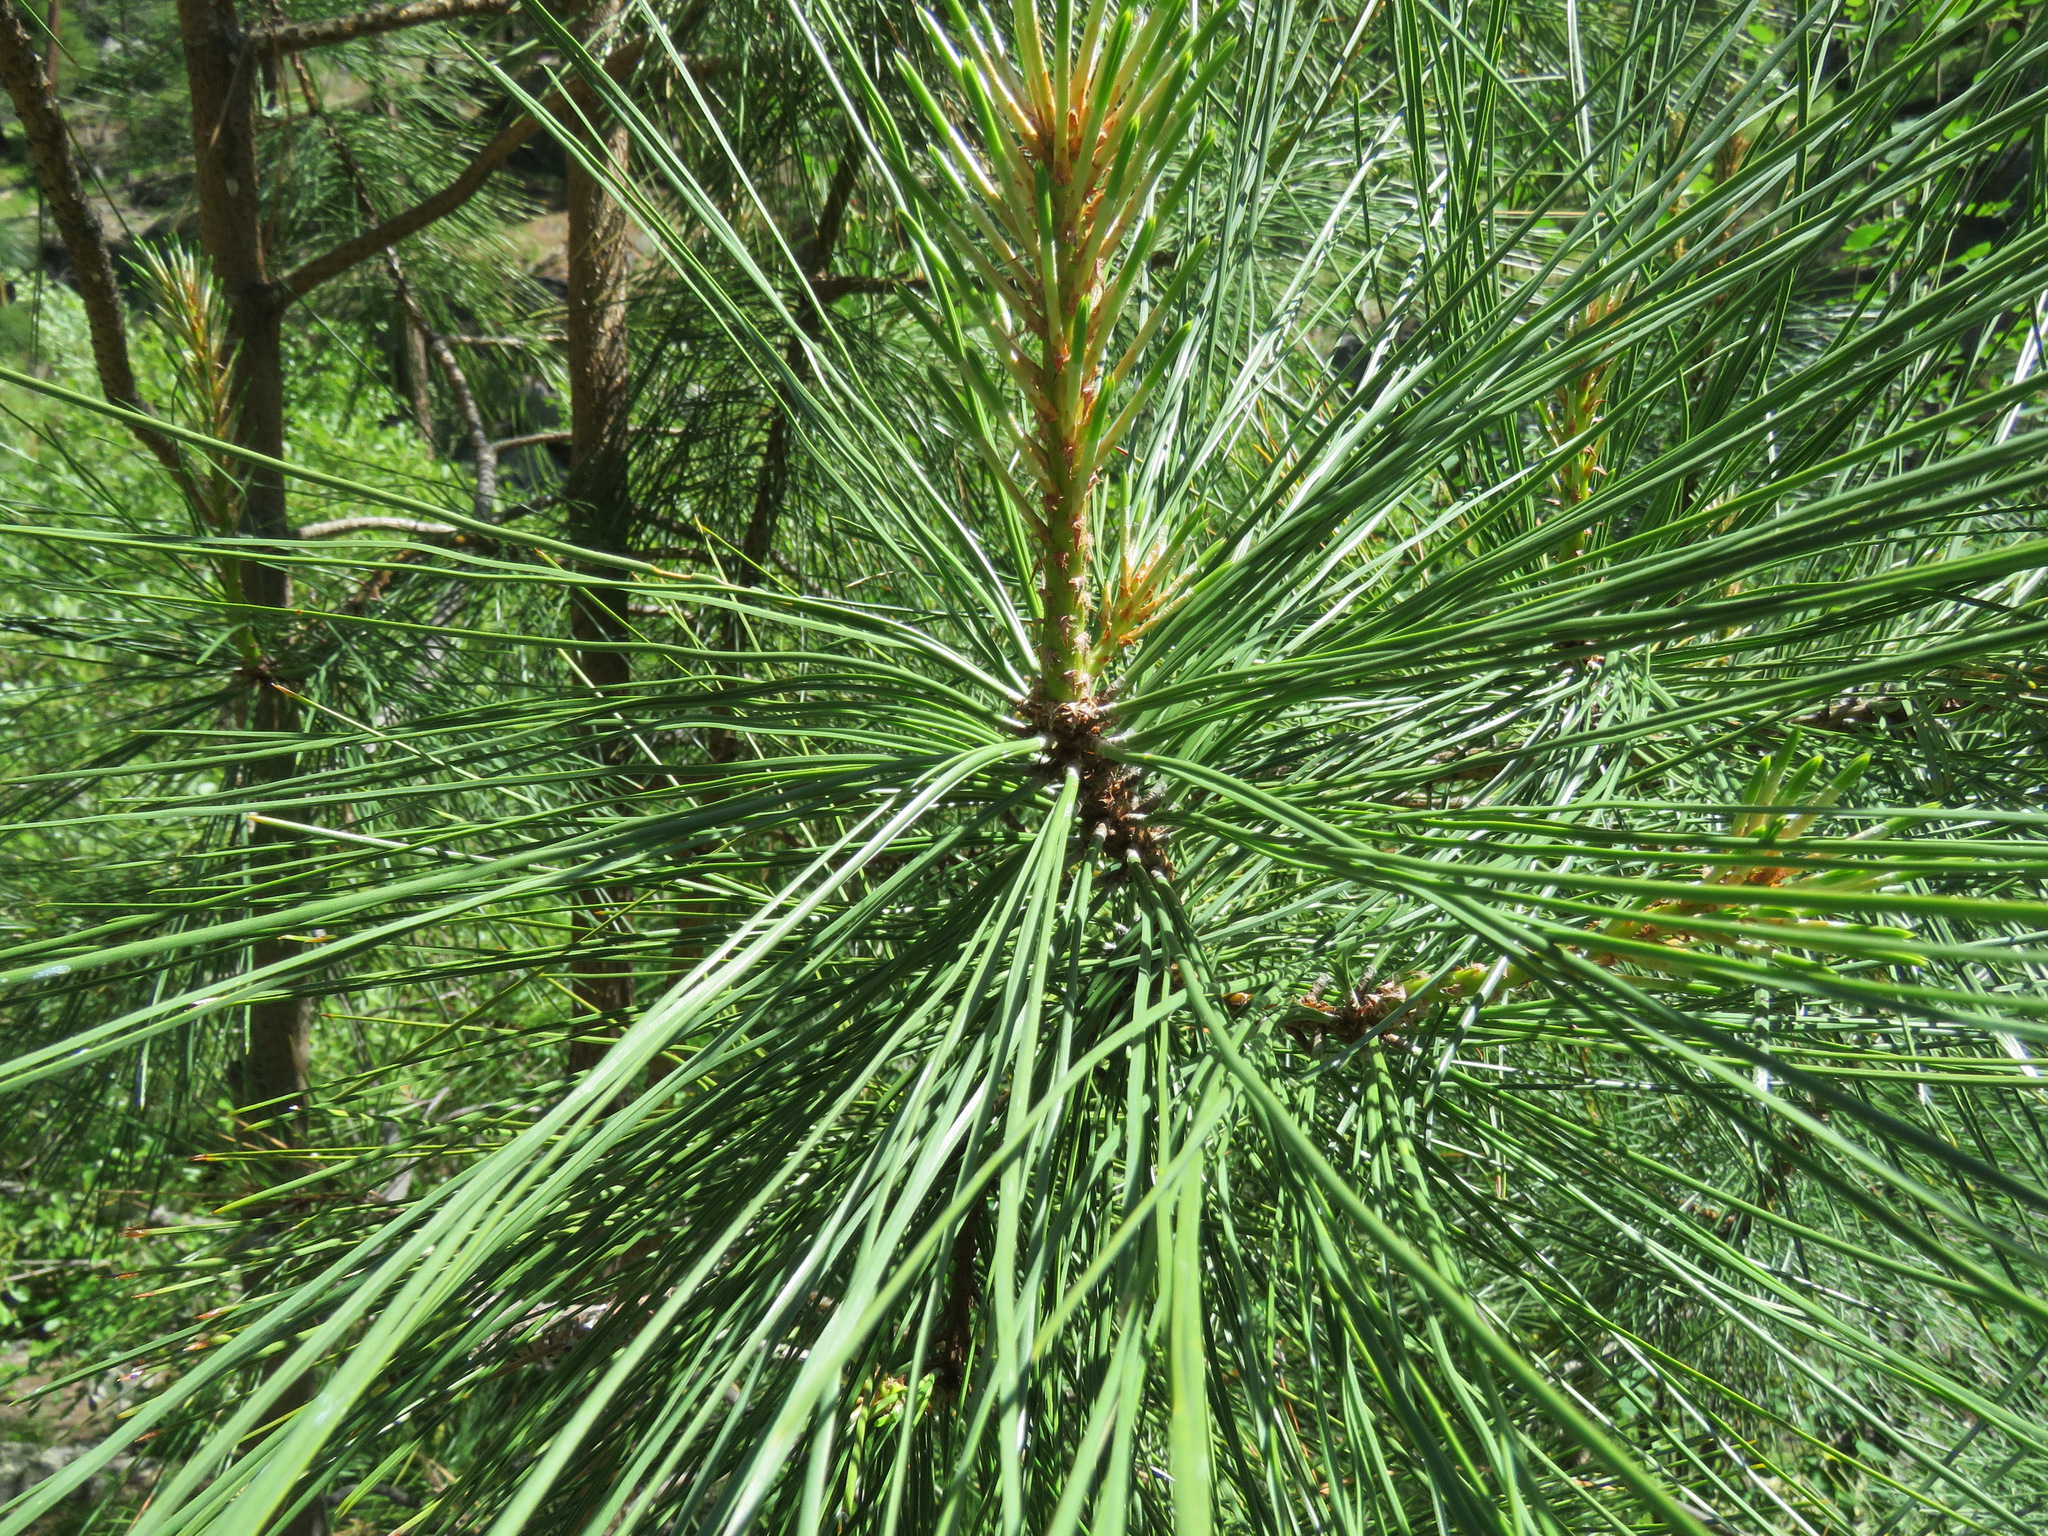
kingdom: Plantae
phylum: Tracheophyta
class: Pinopsida
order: Pinales
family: Pinaceae
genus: Pinus
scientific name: Pinus ponderosa
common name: Western yellow-pine
